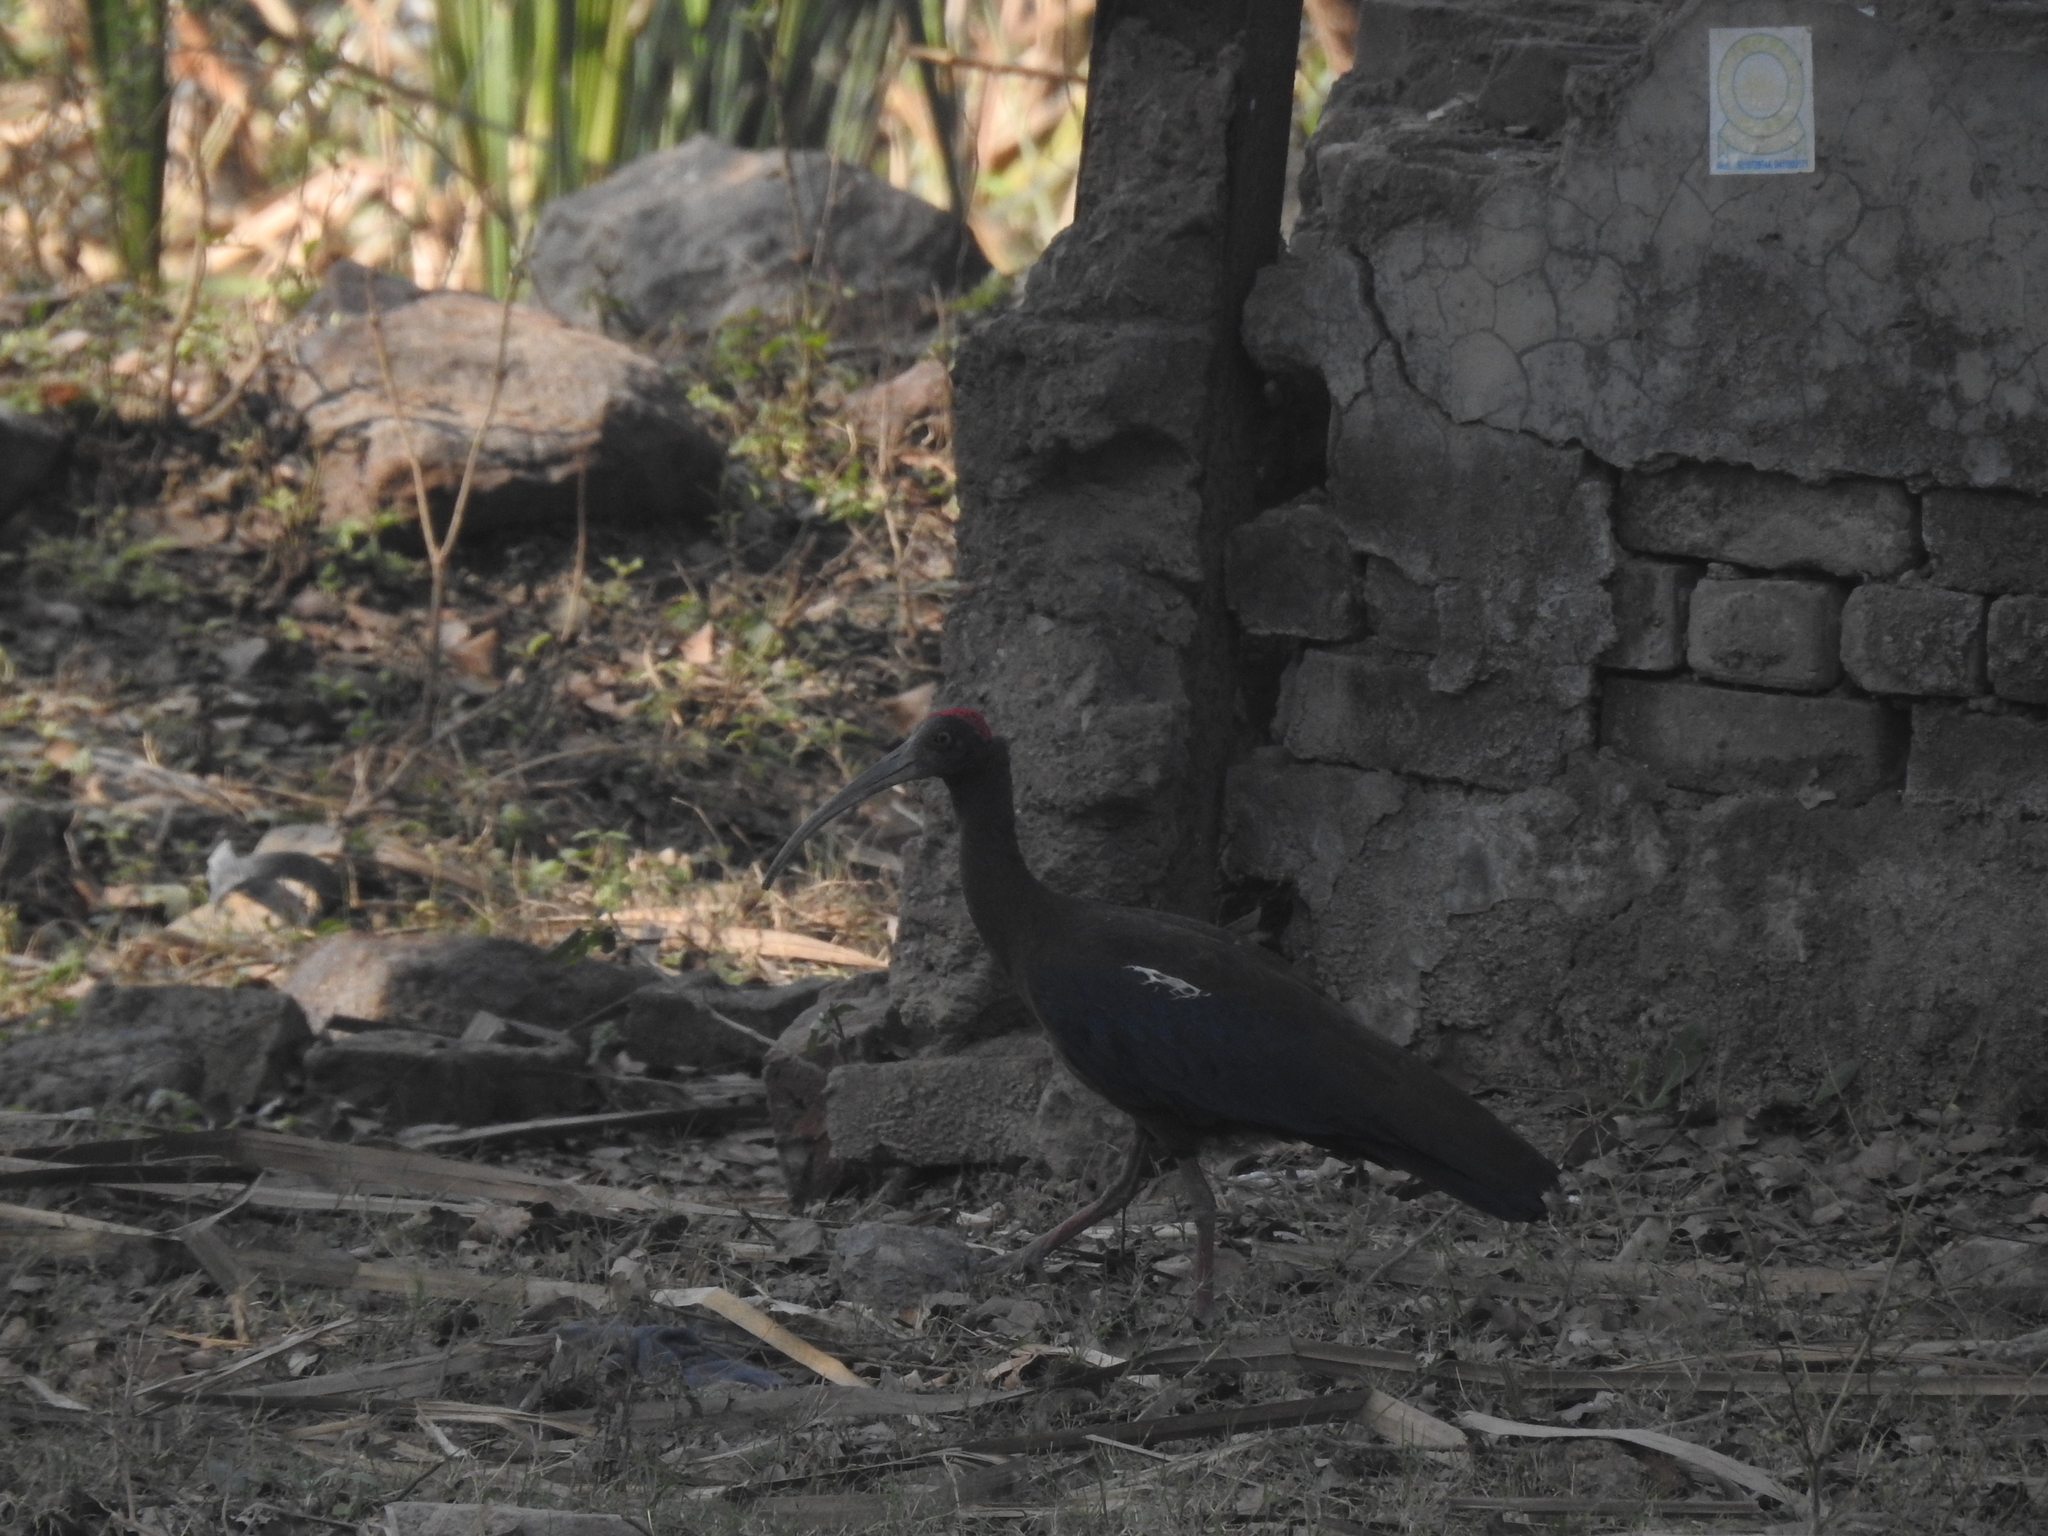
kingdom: Animalia
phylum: Chordata
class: Aves
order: Pelecaniformes
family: Threskiornithidae
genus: Pseudibis
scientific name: Pseudibis papillosa
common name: Red-naped ibis
